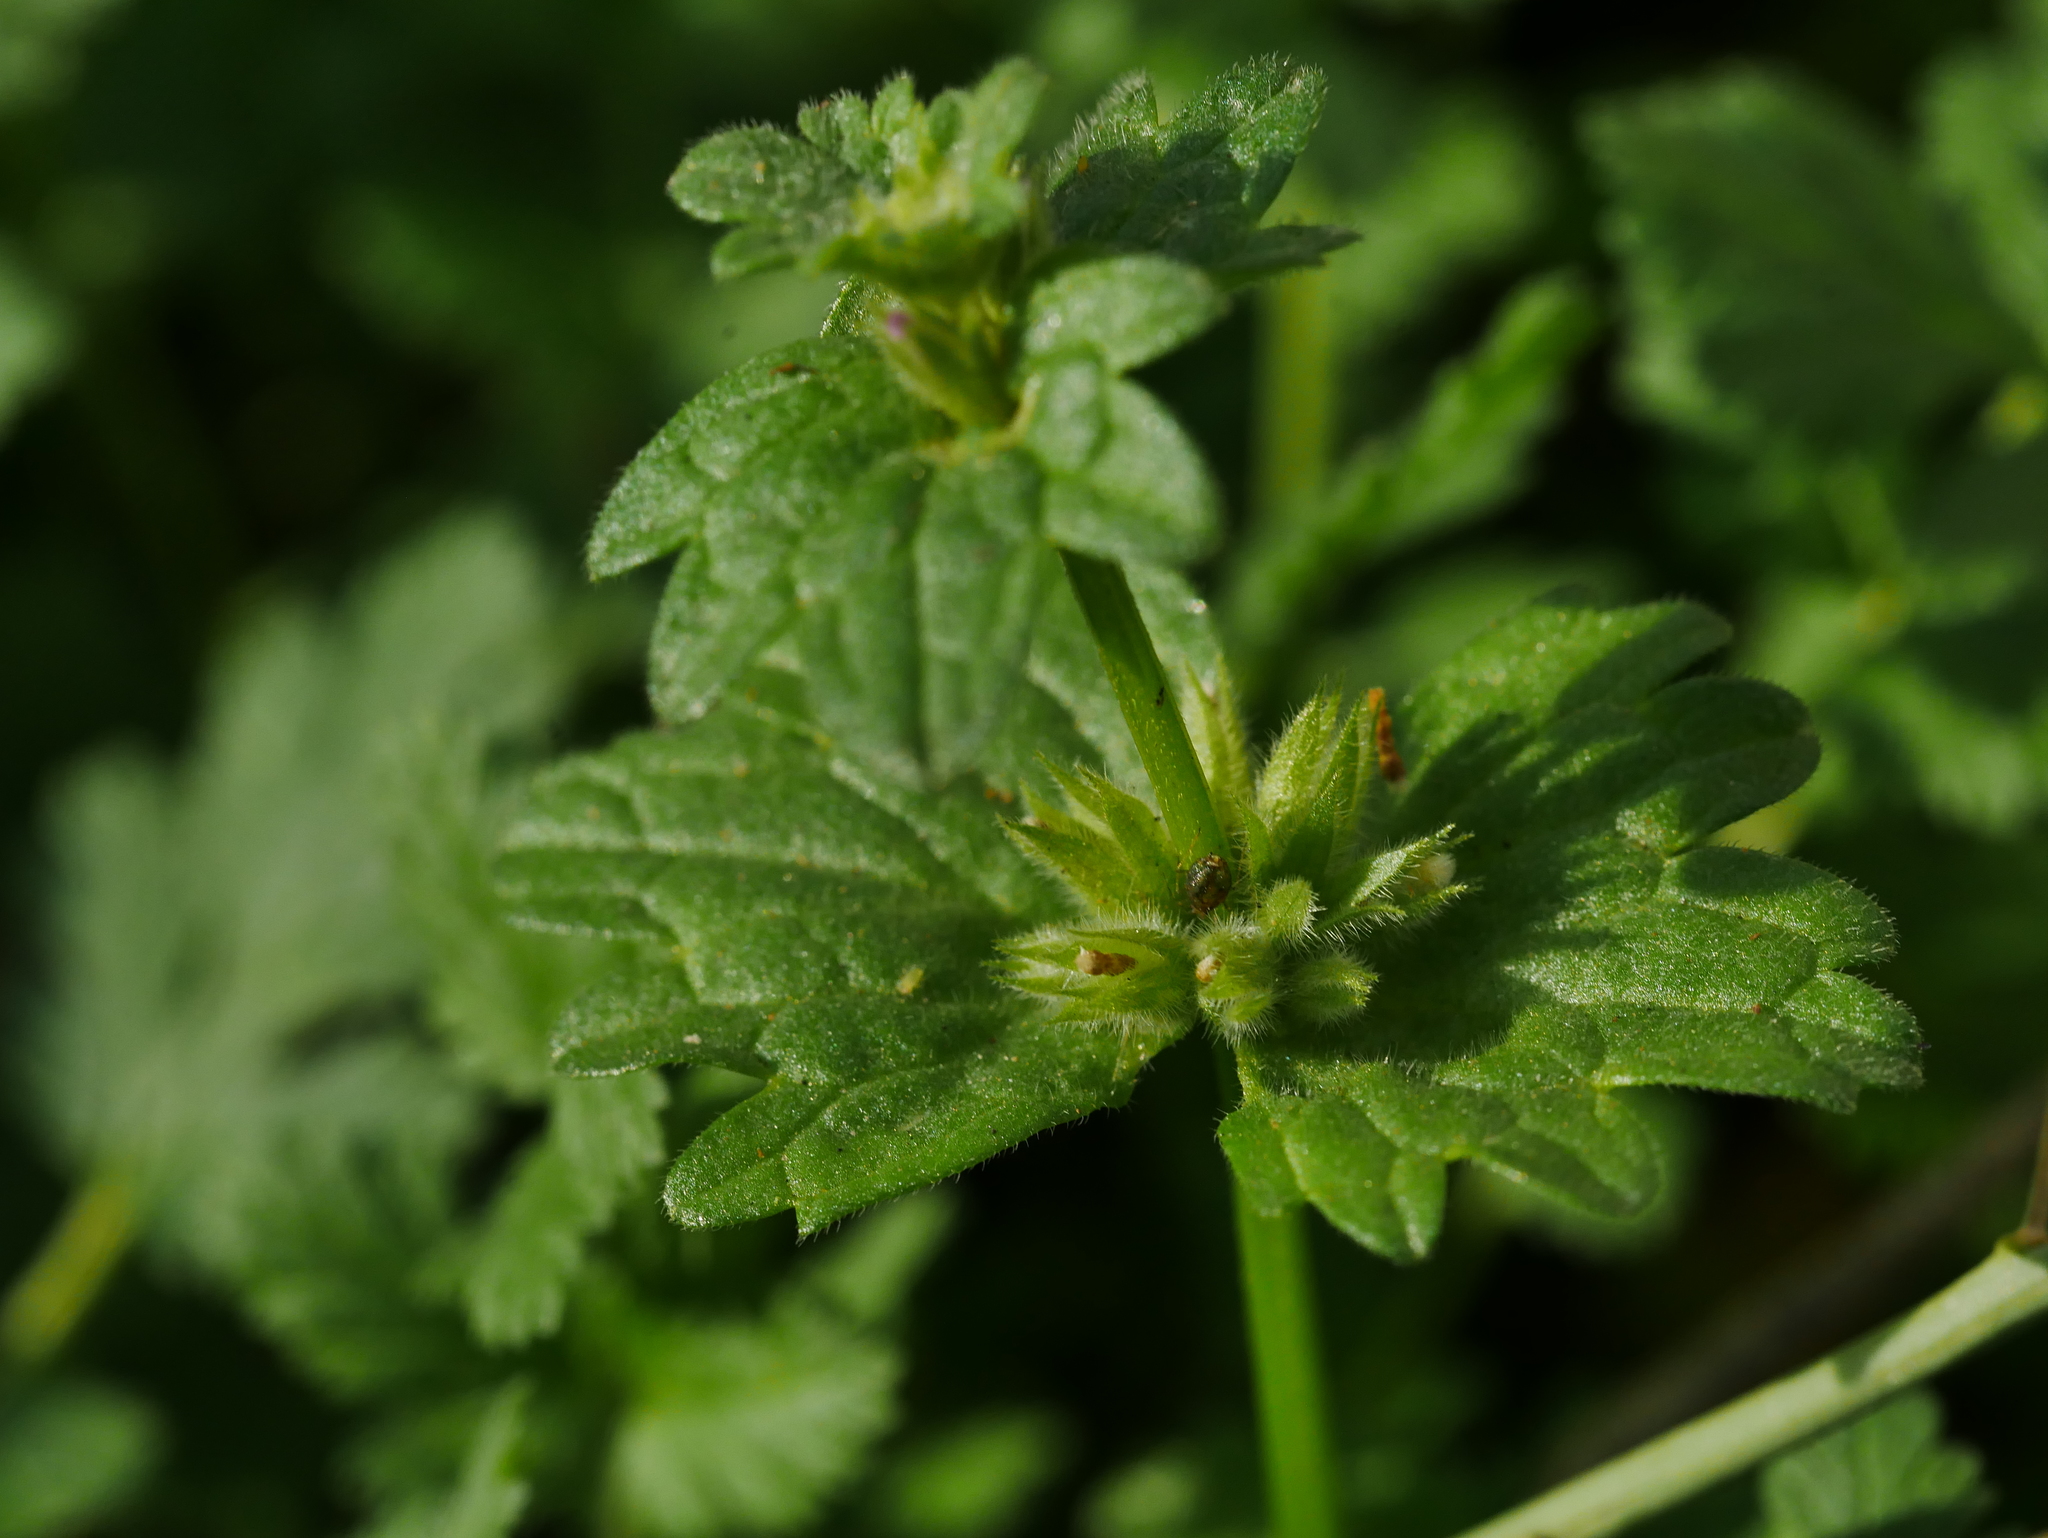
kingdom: Plantae
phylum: Tracheophyta
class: Magnoliopsida
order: Lamiales
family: Lamiaceae
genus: Lamium
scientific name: Lamium amplexicaule
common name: Henbit dead-nettle
